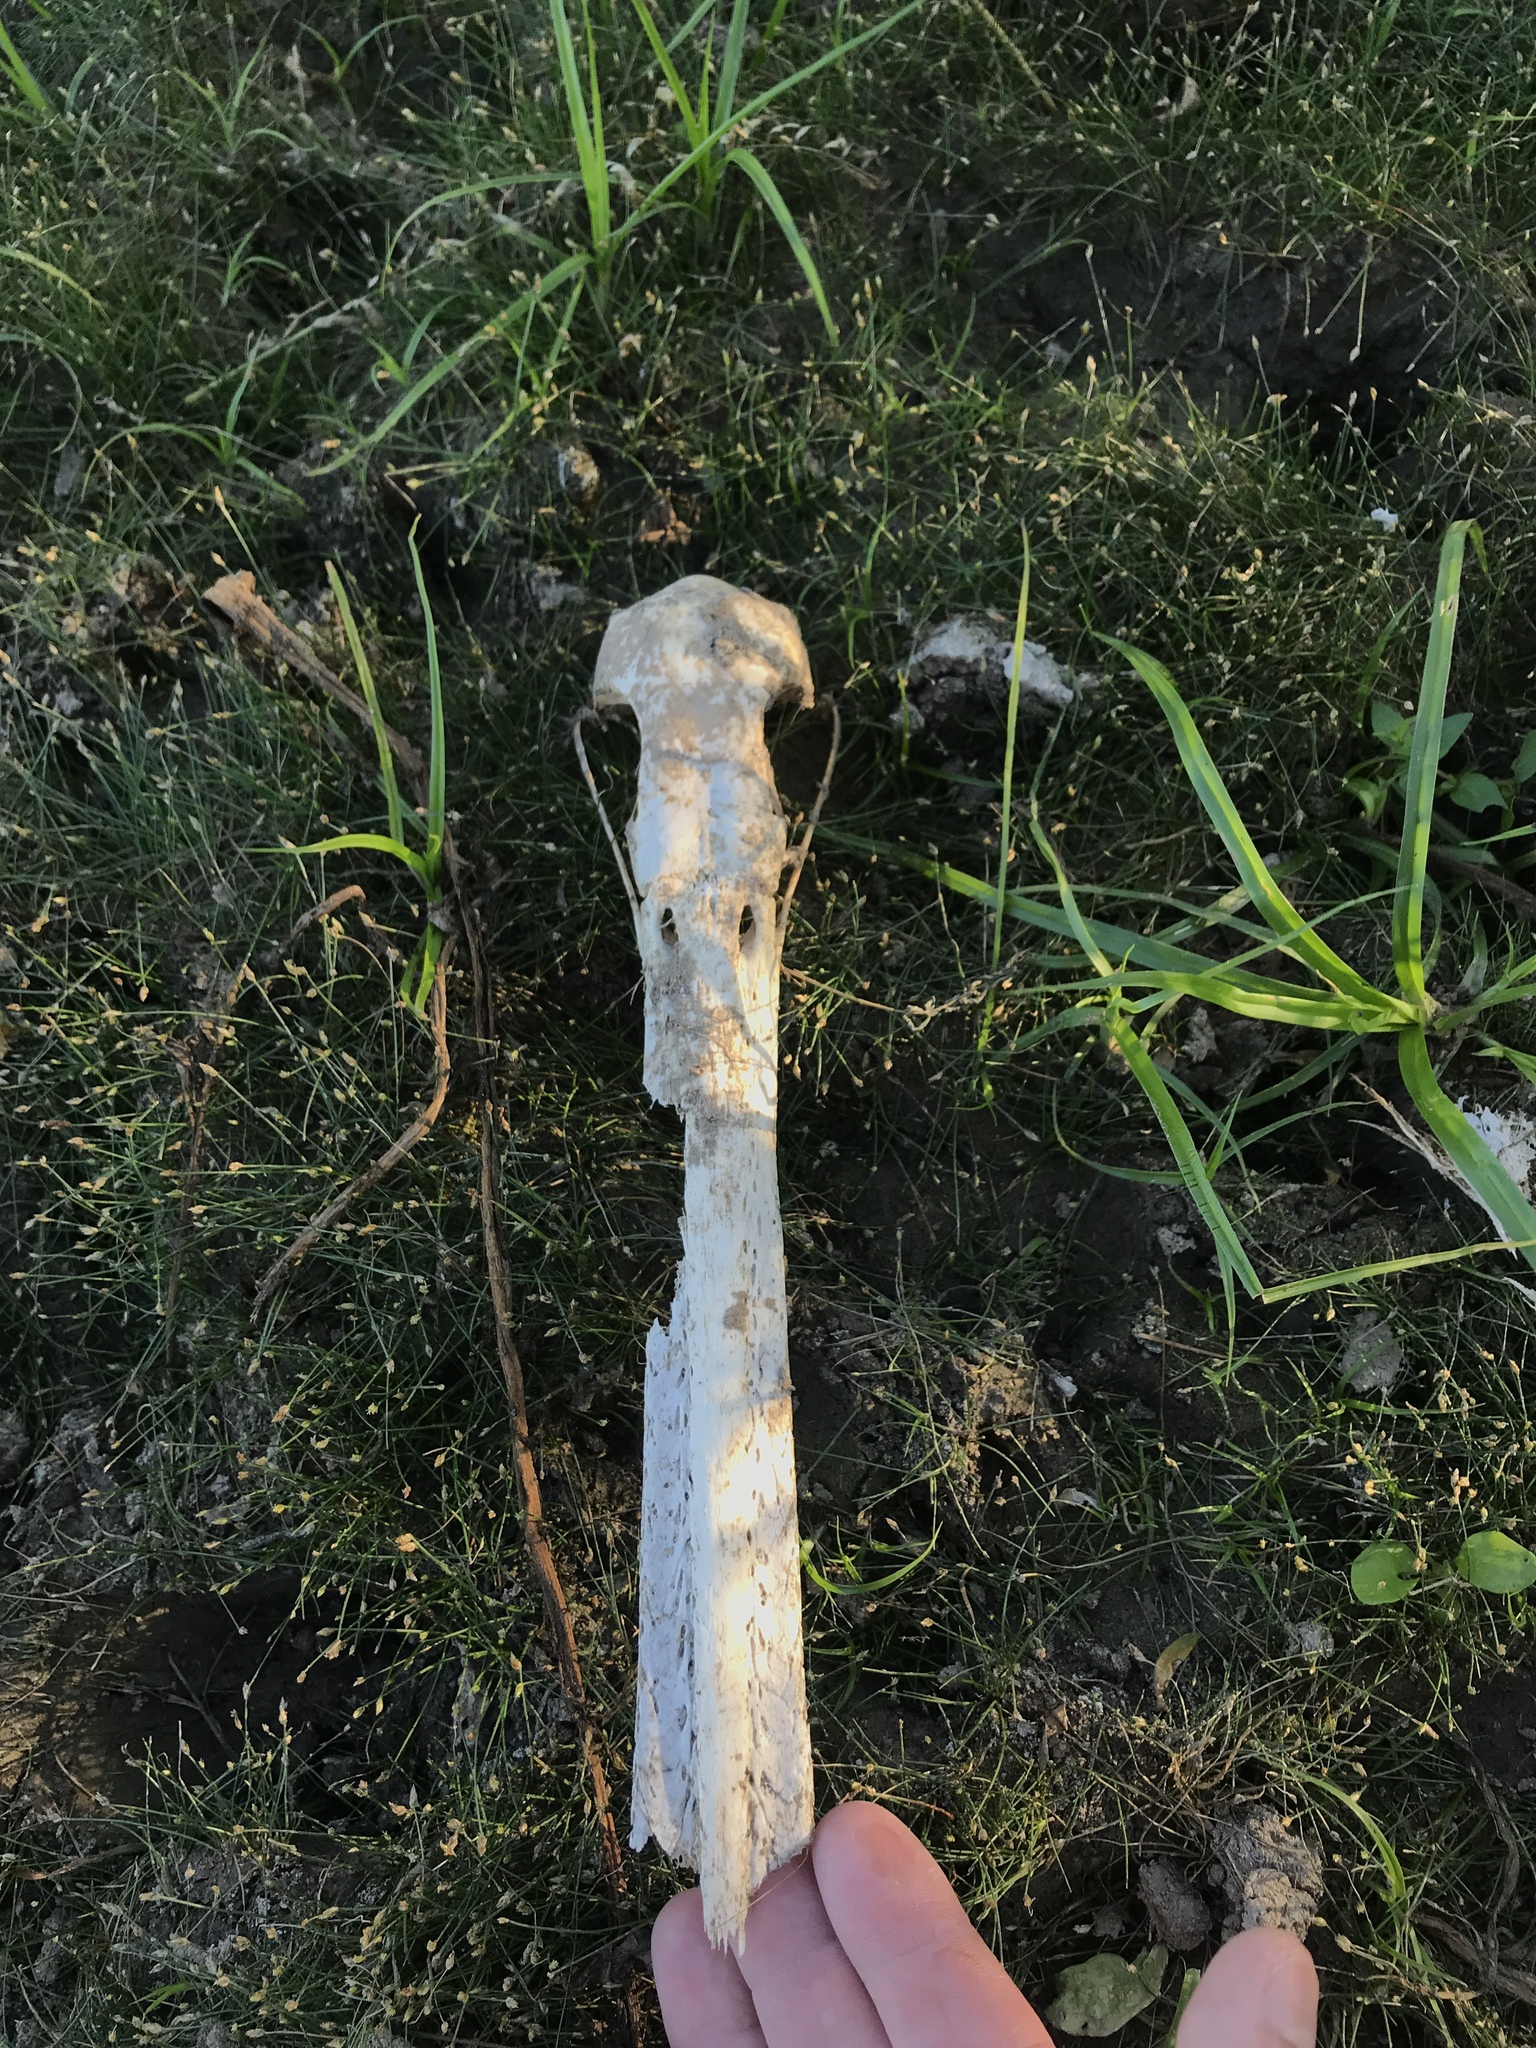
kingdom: Animalia
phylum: Chordata
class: Aves
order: Pelecaniformes
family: Pelecanidae
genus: Pelecanus
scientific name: Pelecanus erythrorhynchos
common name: American white pelican
